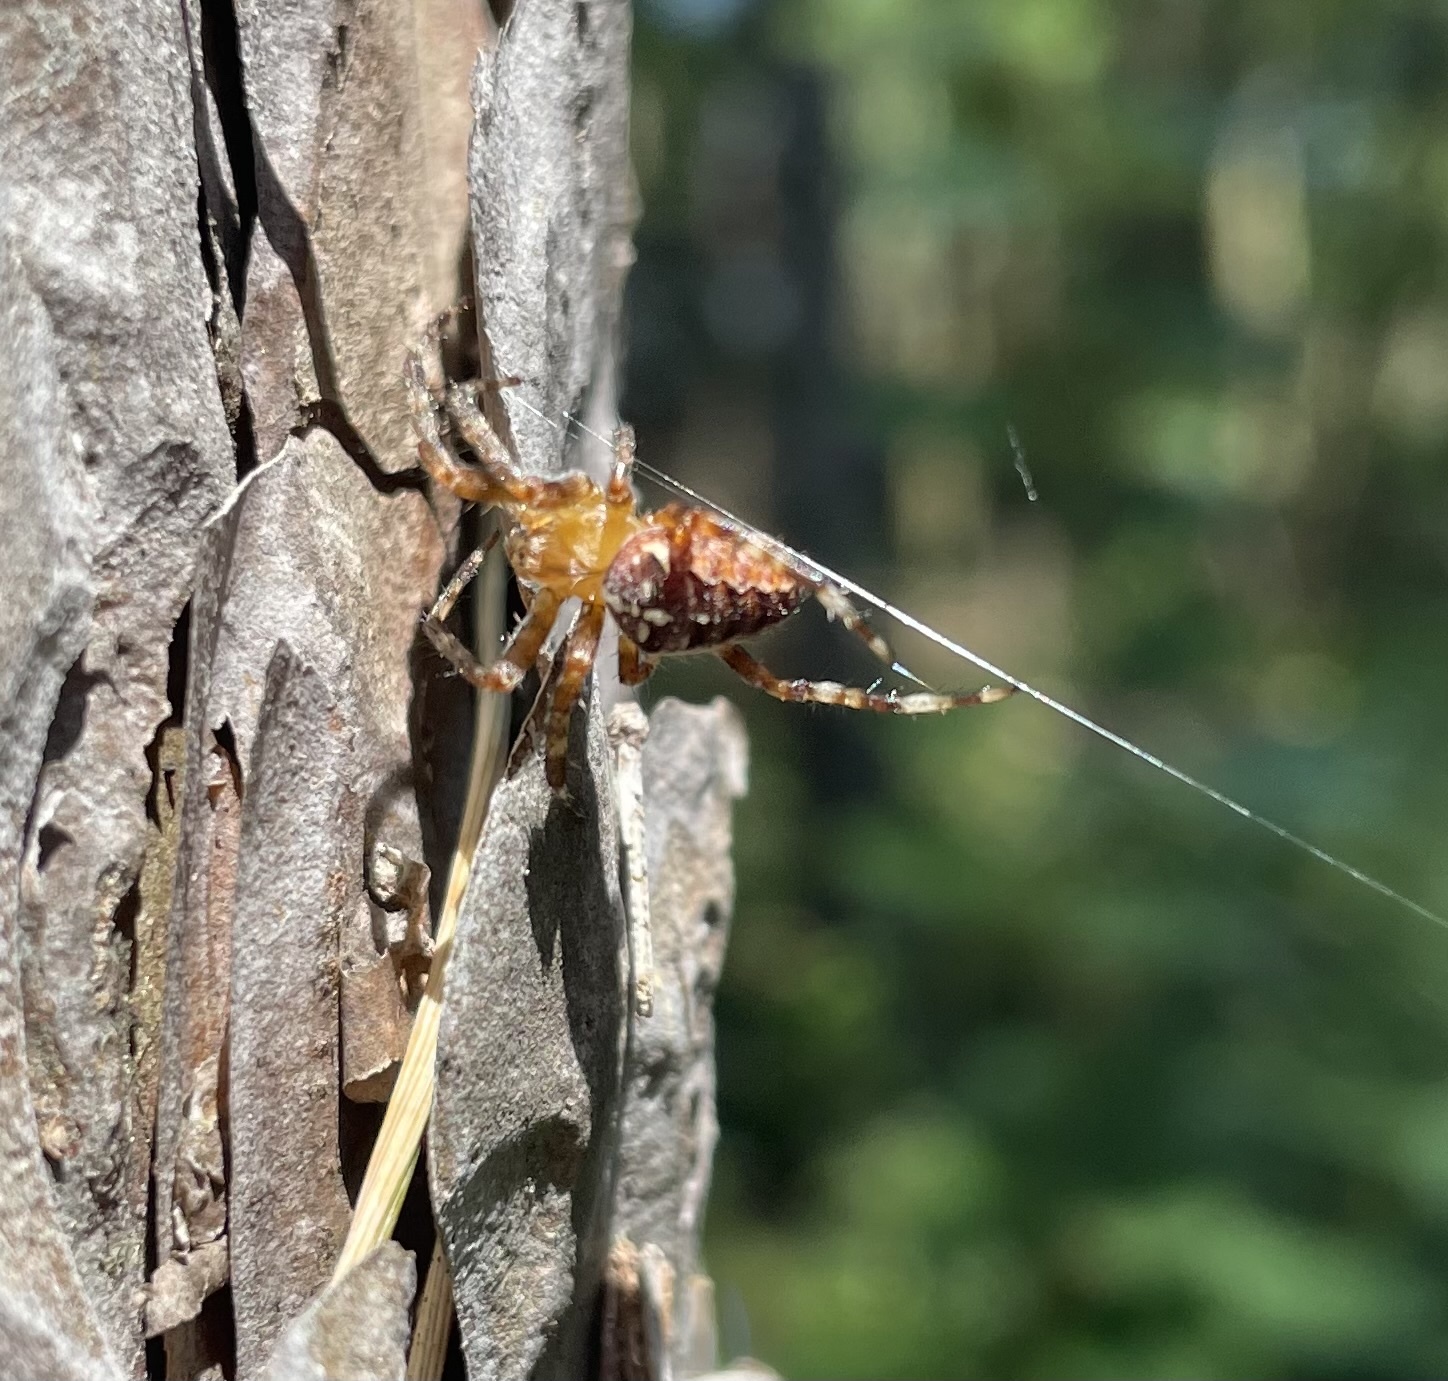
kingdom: Animalia
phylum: Arthropoda
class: Arachnida
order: Araneae
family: Araneidae
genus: Araneus
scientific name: Araneus diadematus
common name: Cross orbweaver
